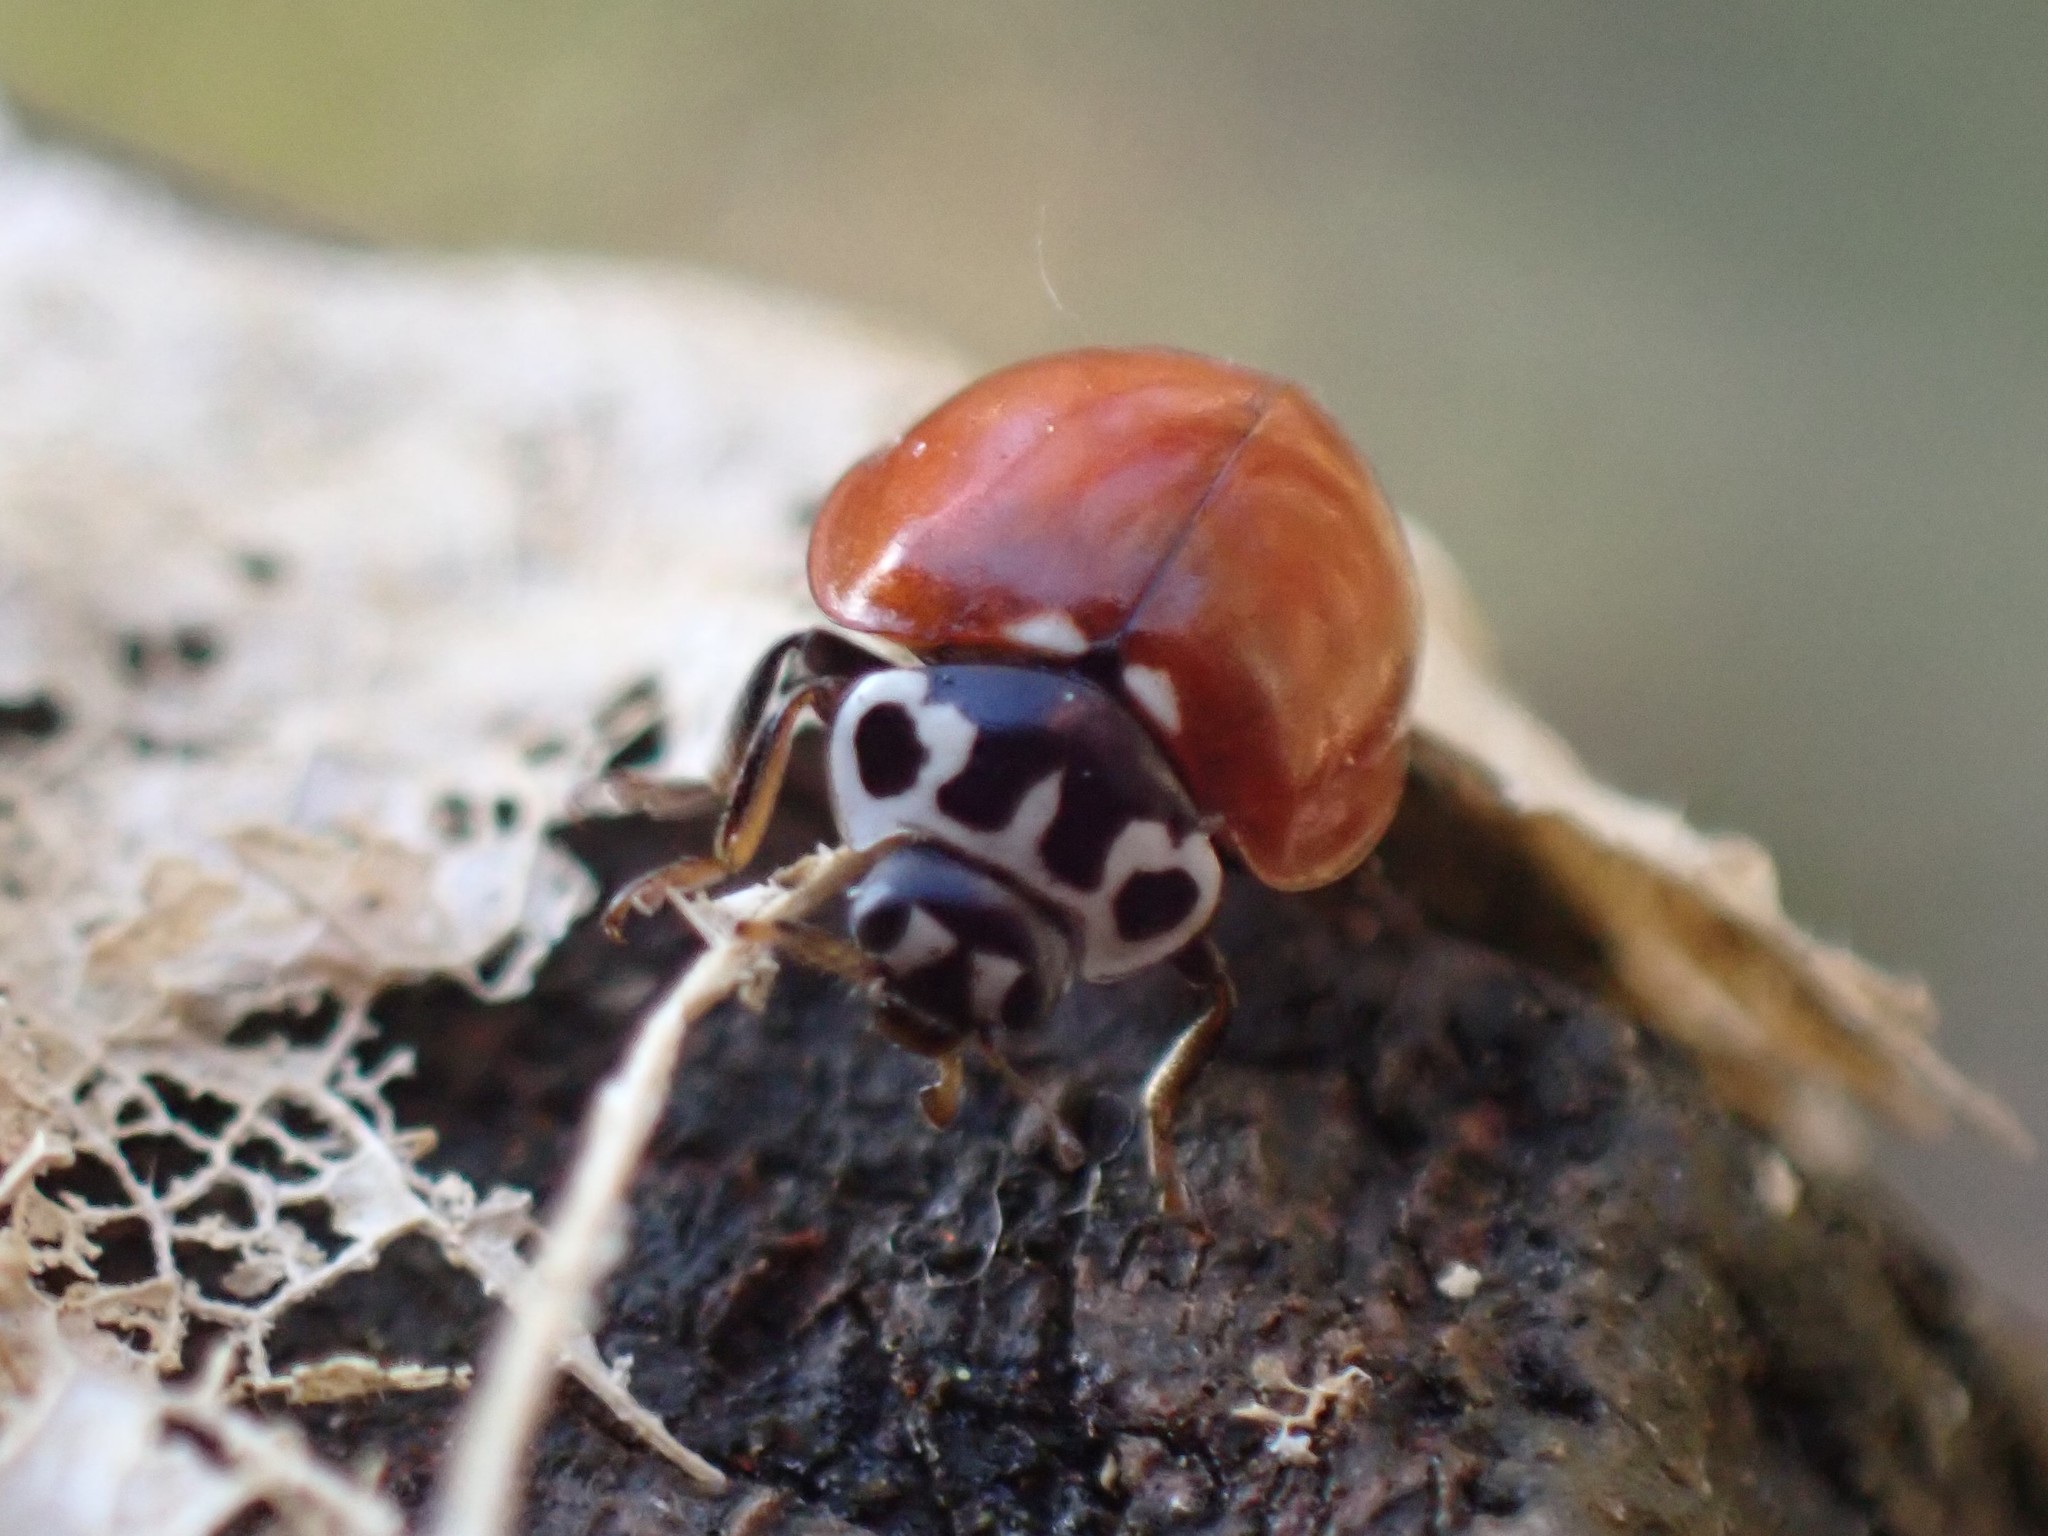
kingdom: Animalia
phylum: Arthropoda
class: Insecta
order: Coleoptera
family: Coccinellidae
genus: Cycloneda
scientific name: Cycloneda polita
